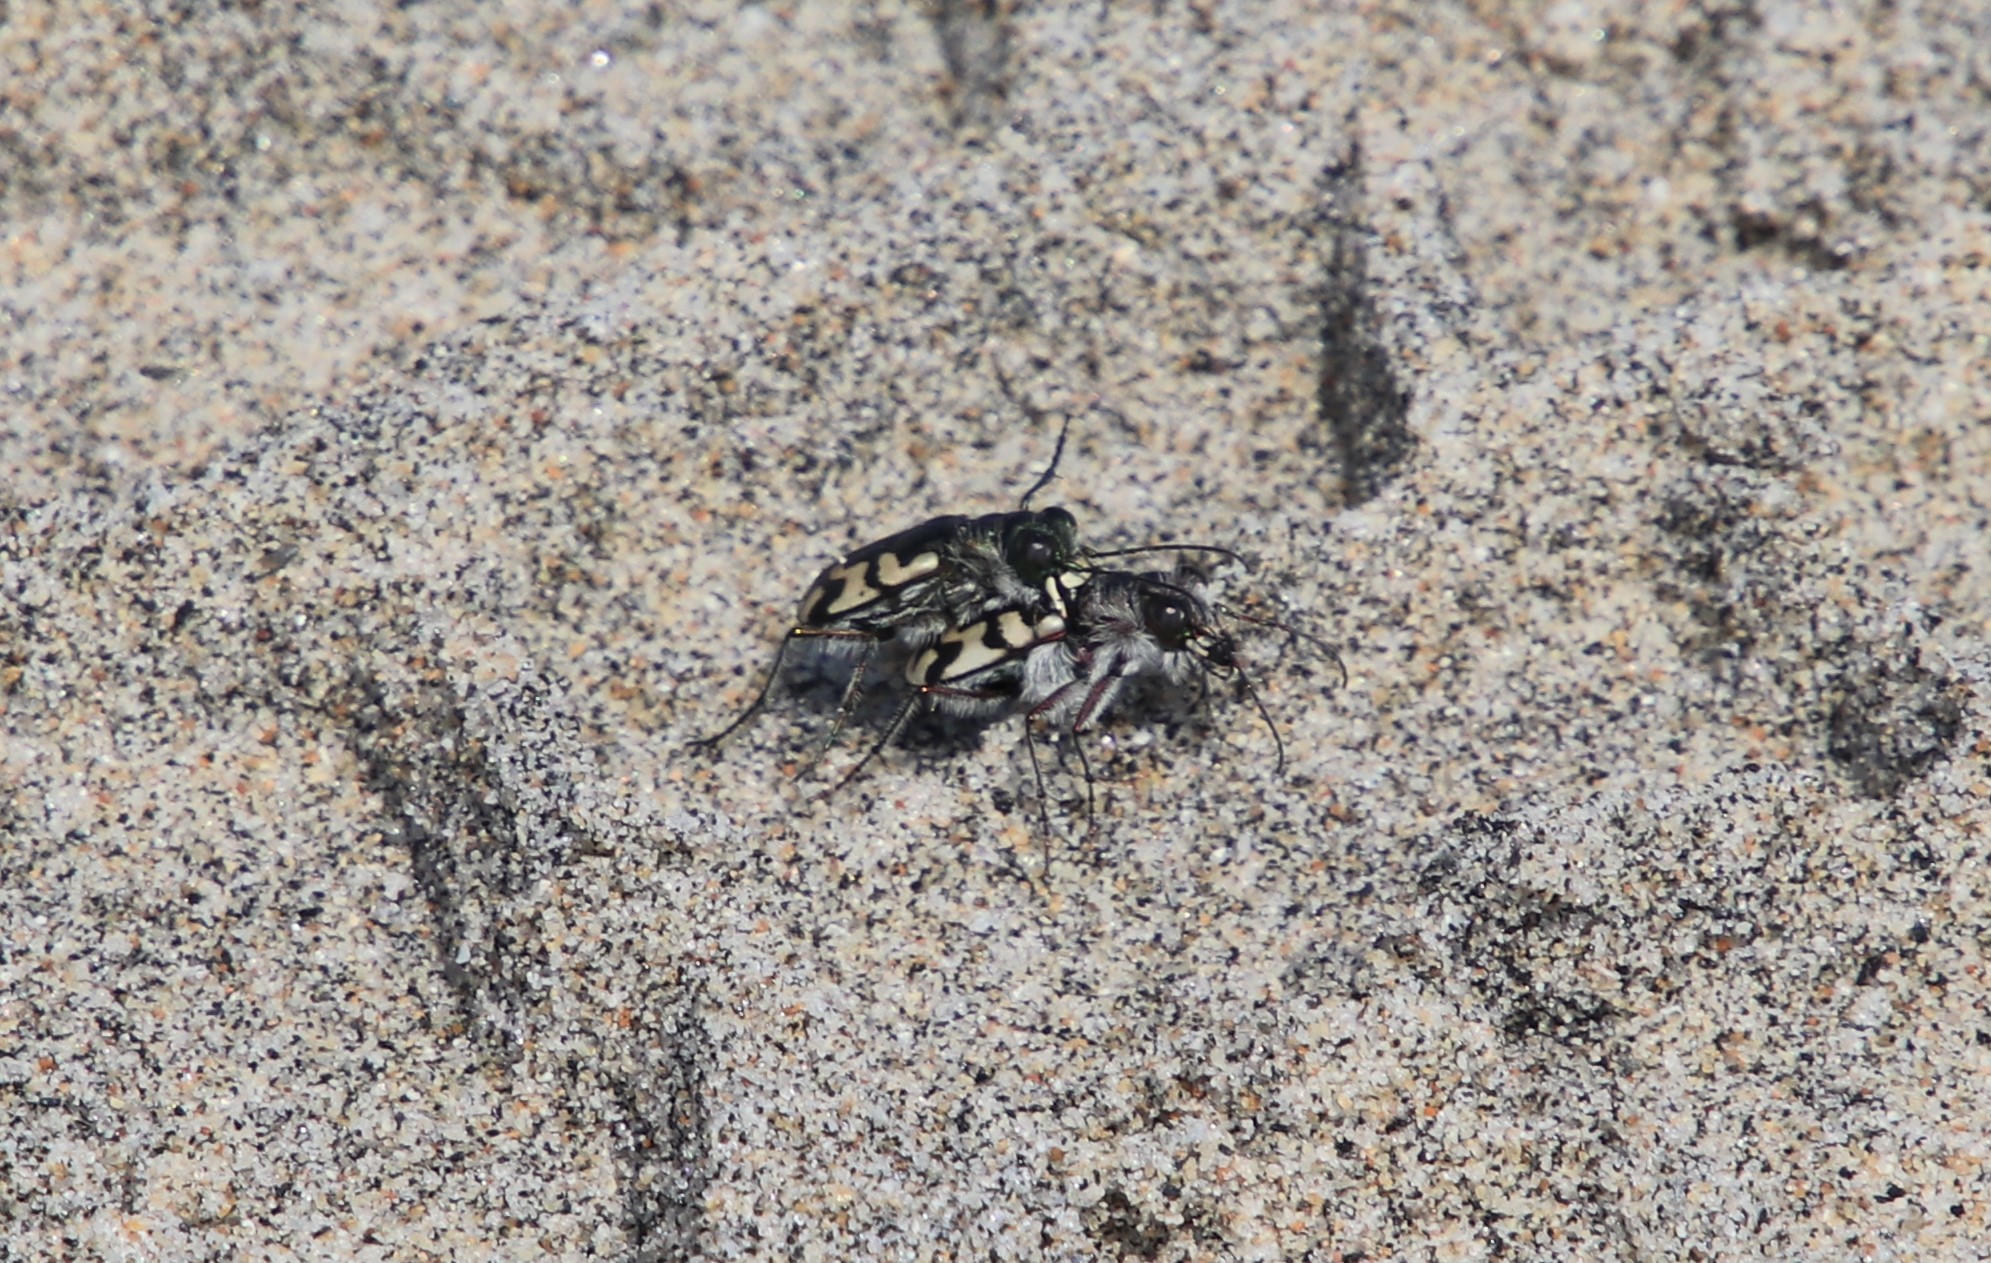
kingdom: Animalia
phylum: Arthropoda
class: Insecta
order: Coleoptera
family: Carabidae
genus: Cicindela
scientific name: Cicindela latesignata
